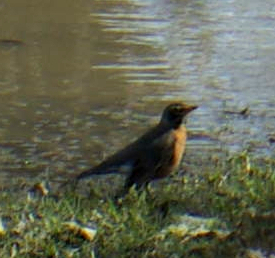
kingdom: Animalia
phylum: Chordata
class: Aves
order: Passeriformes
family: Turdidae
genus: Turdus
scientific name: Turdus migratorius
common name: American robin
